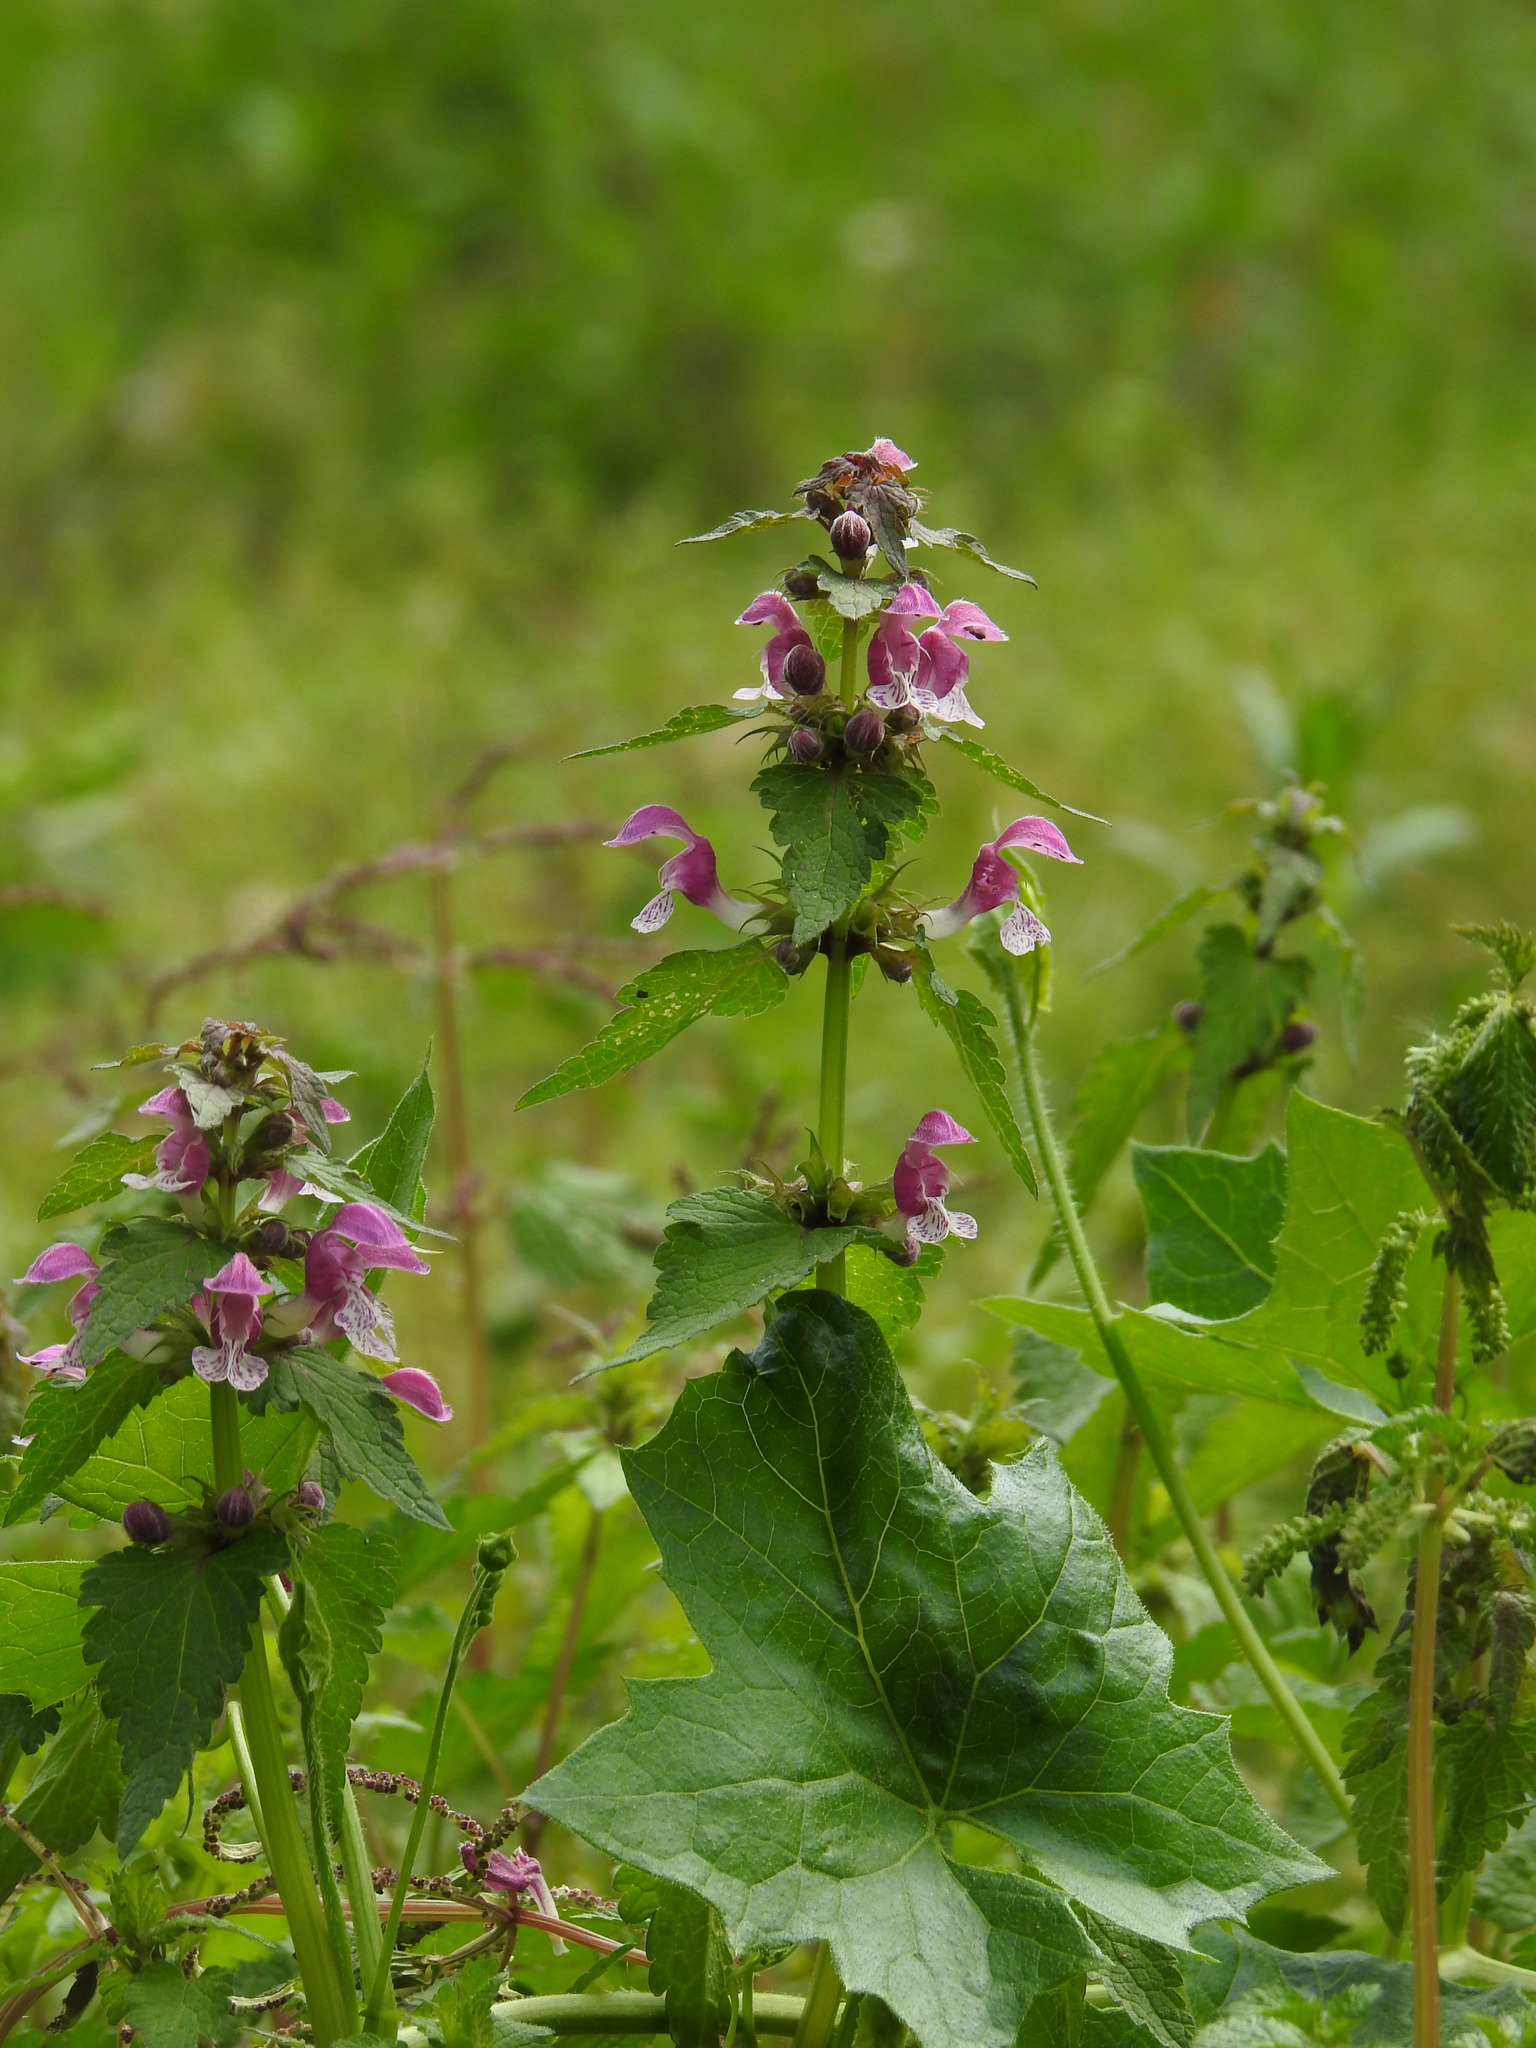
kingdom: Plantae
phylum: Tracheophyta
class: Magnoliopsida
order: Lamiales
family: Lamiaceae
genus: Lamium
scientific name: Lamium maculatum
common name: Spotted dead-nettle
